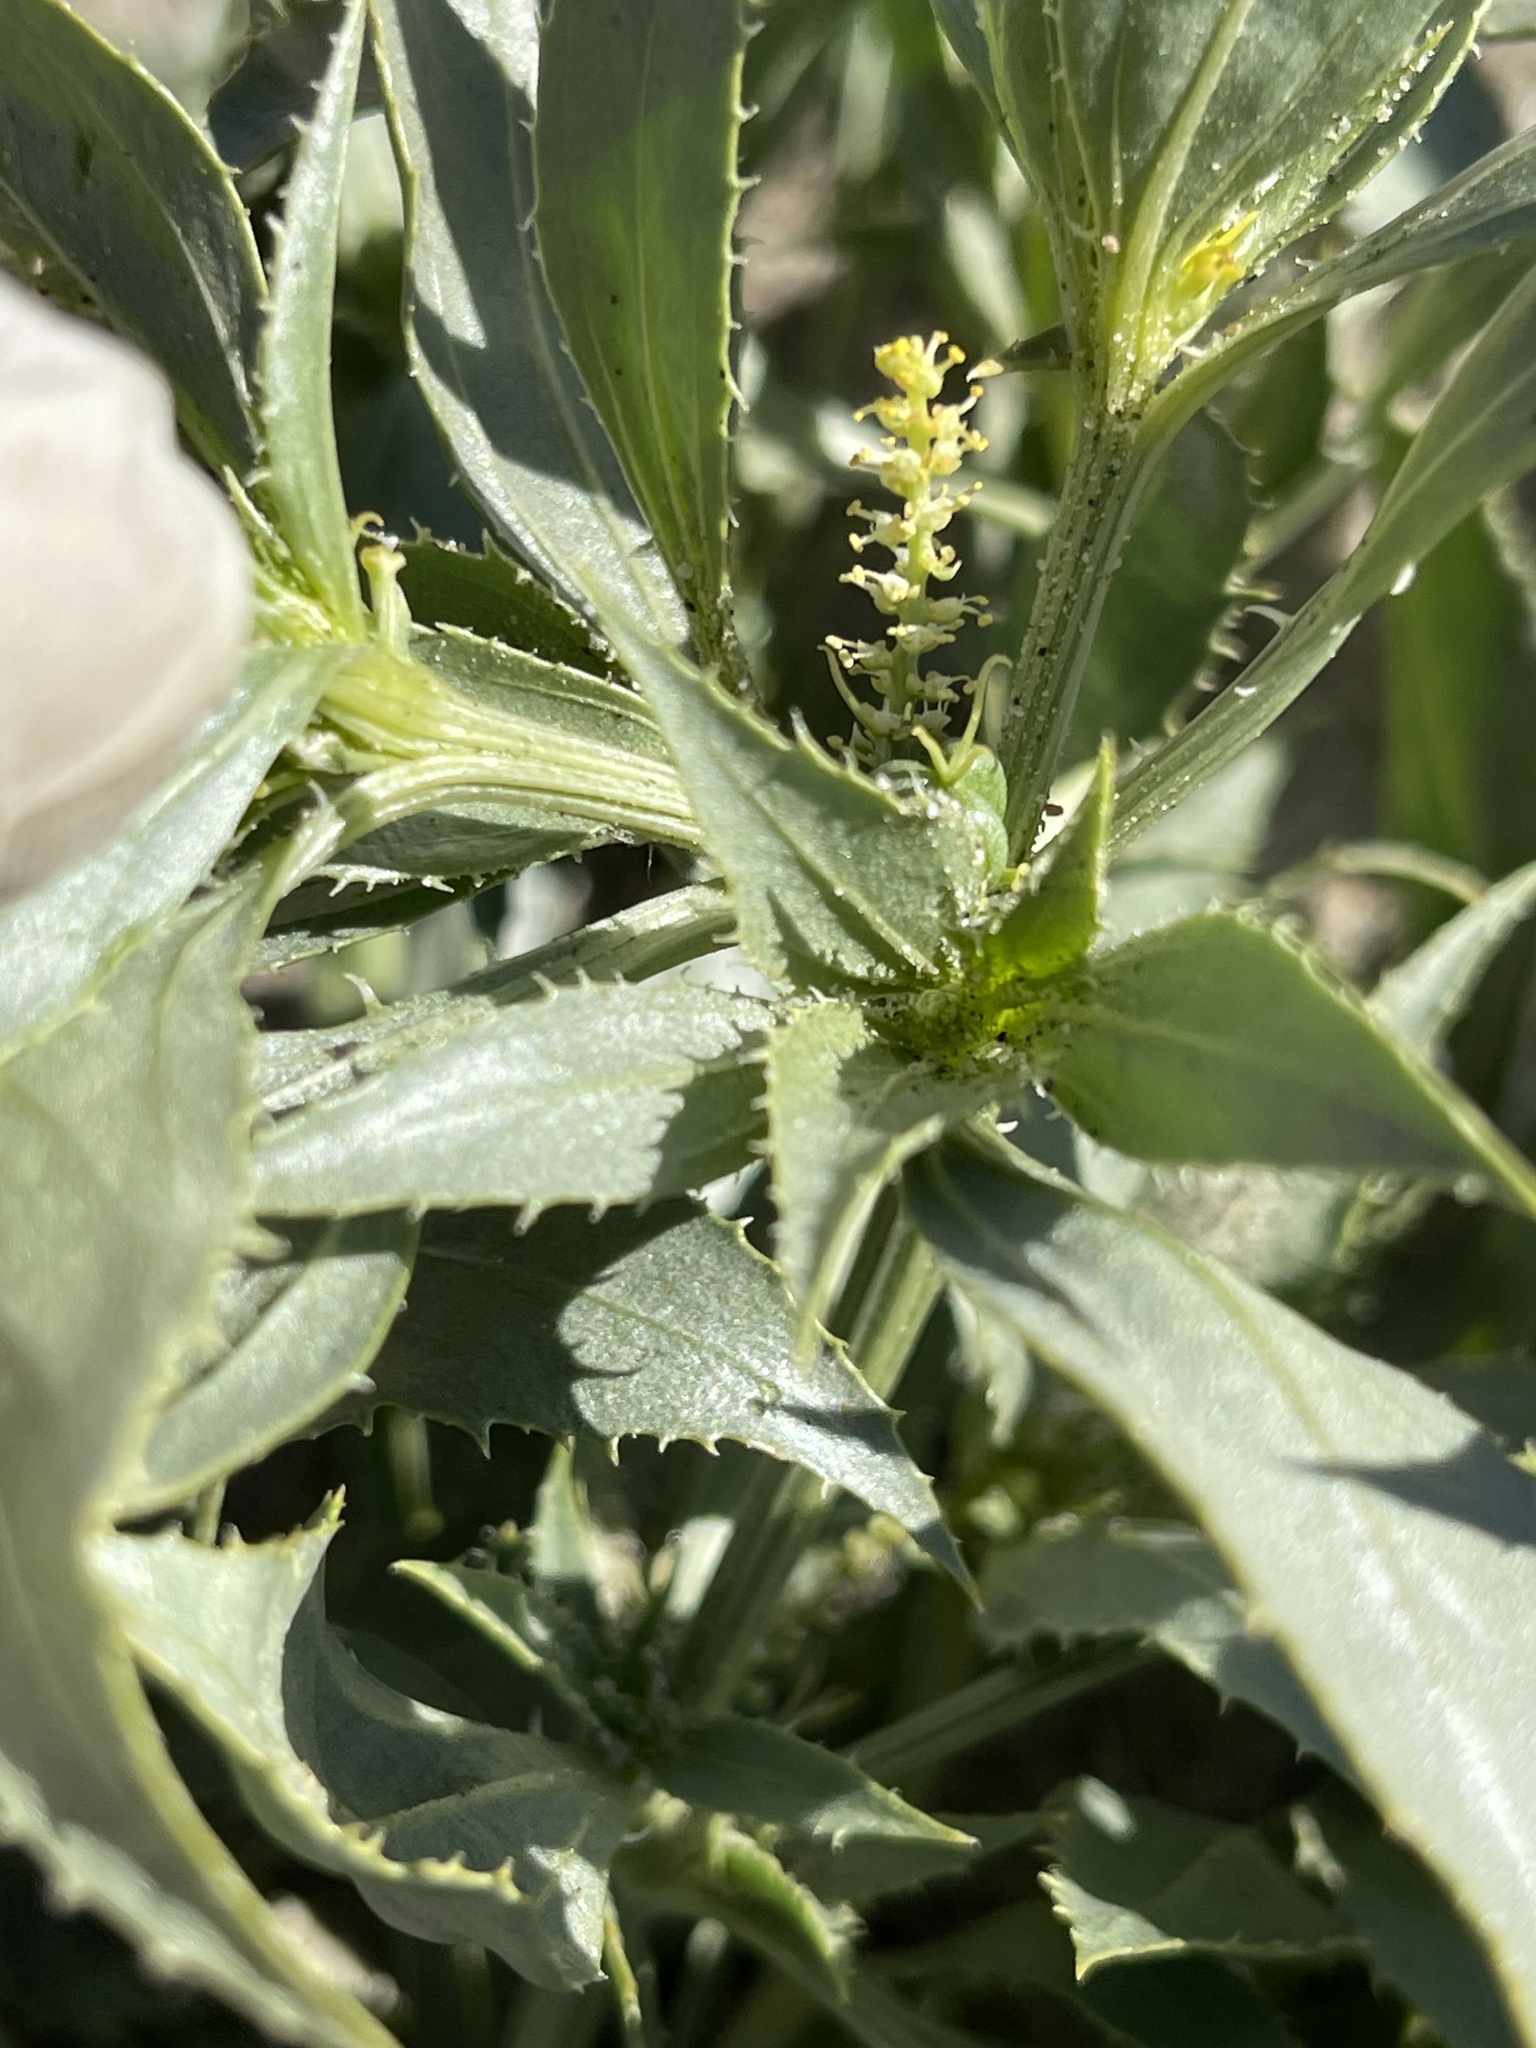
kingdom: Plantae
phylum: Tracheophyta
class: Magnoliopsida
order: Malpighiales
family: Euphorbiaceae
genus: Stillingia
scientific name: Stillingia spinulosa
